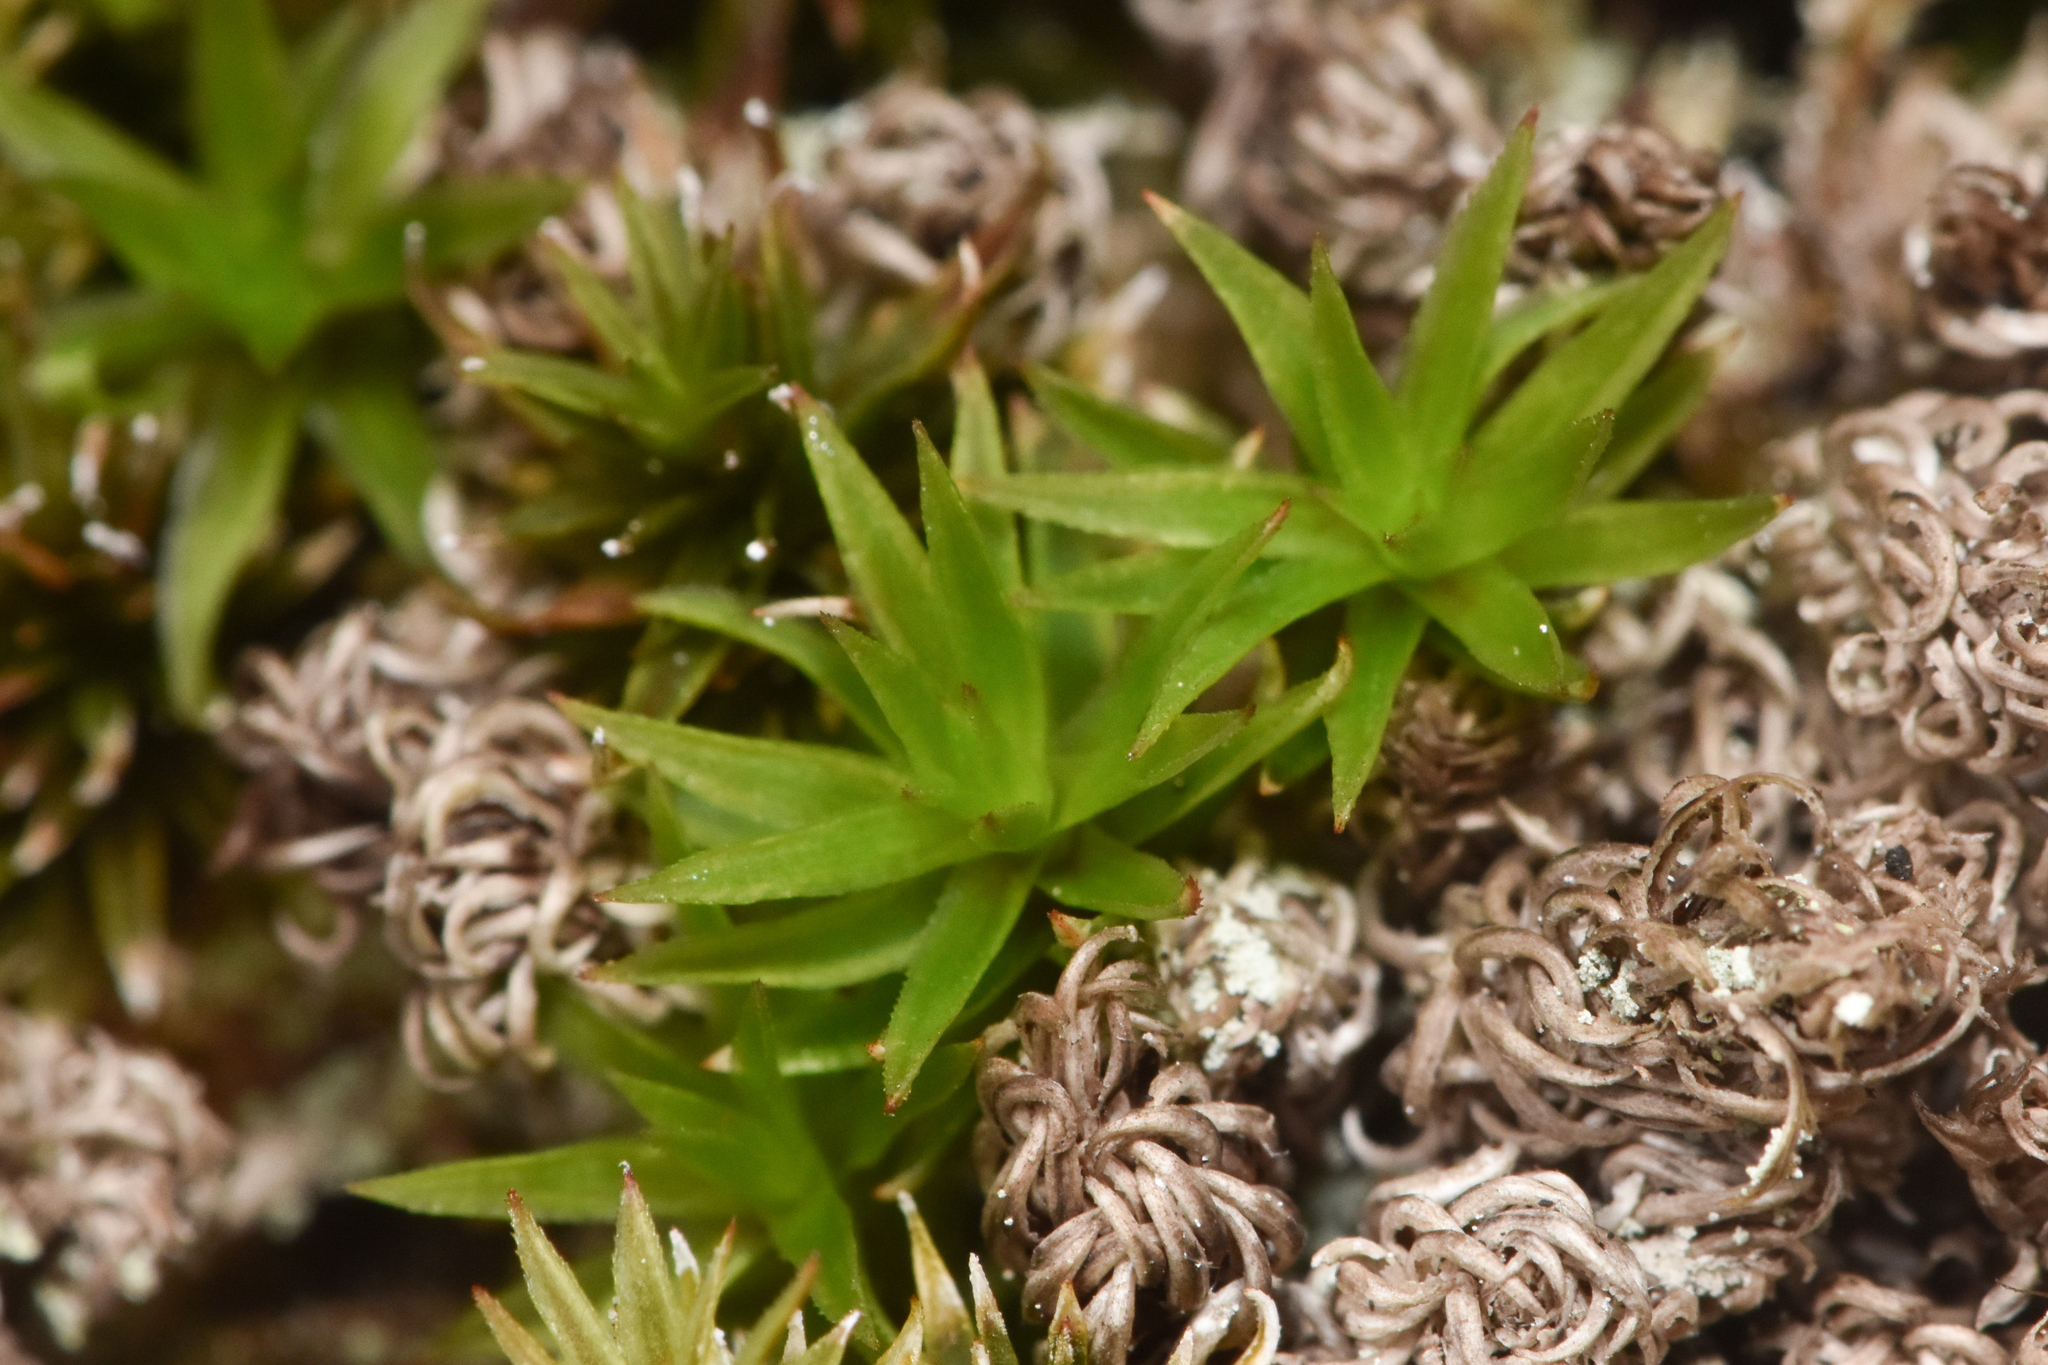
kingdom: Plantae
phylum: Bryophyta
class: Polytrichopsida
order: Polytrichales
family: Polytrichaceae
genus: Pogonatum
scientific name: Pogonatum contortum
